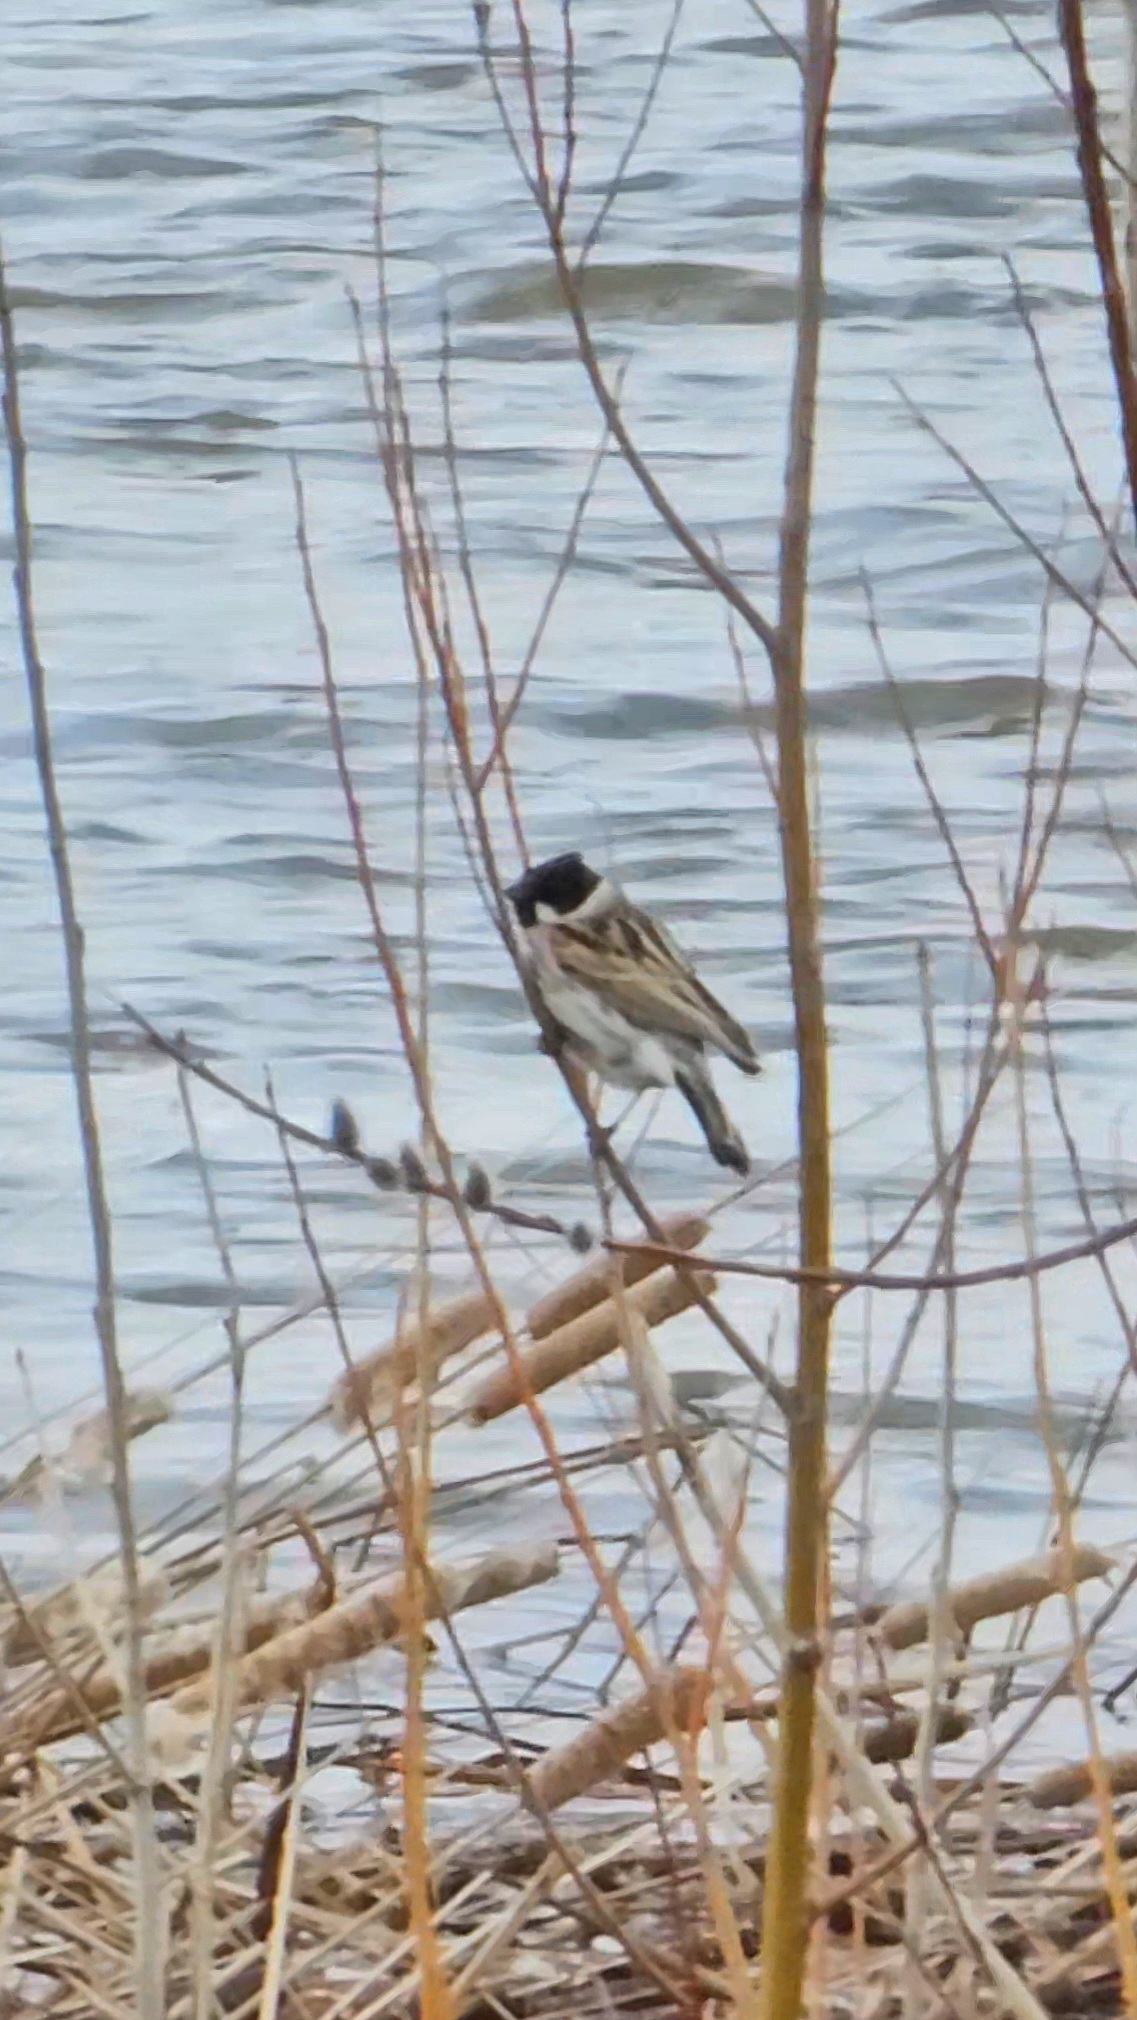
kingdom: Animalia
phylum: Chordata
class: Aves
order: Passeriformes
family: Emberizidae
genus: Emberiza
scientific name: Emberiza schoeniclus
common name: Reed bunting
